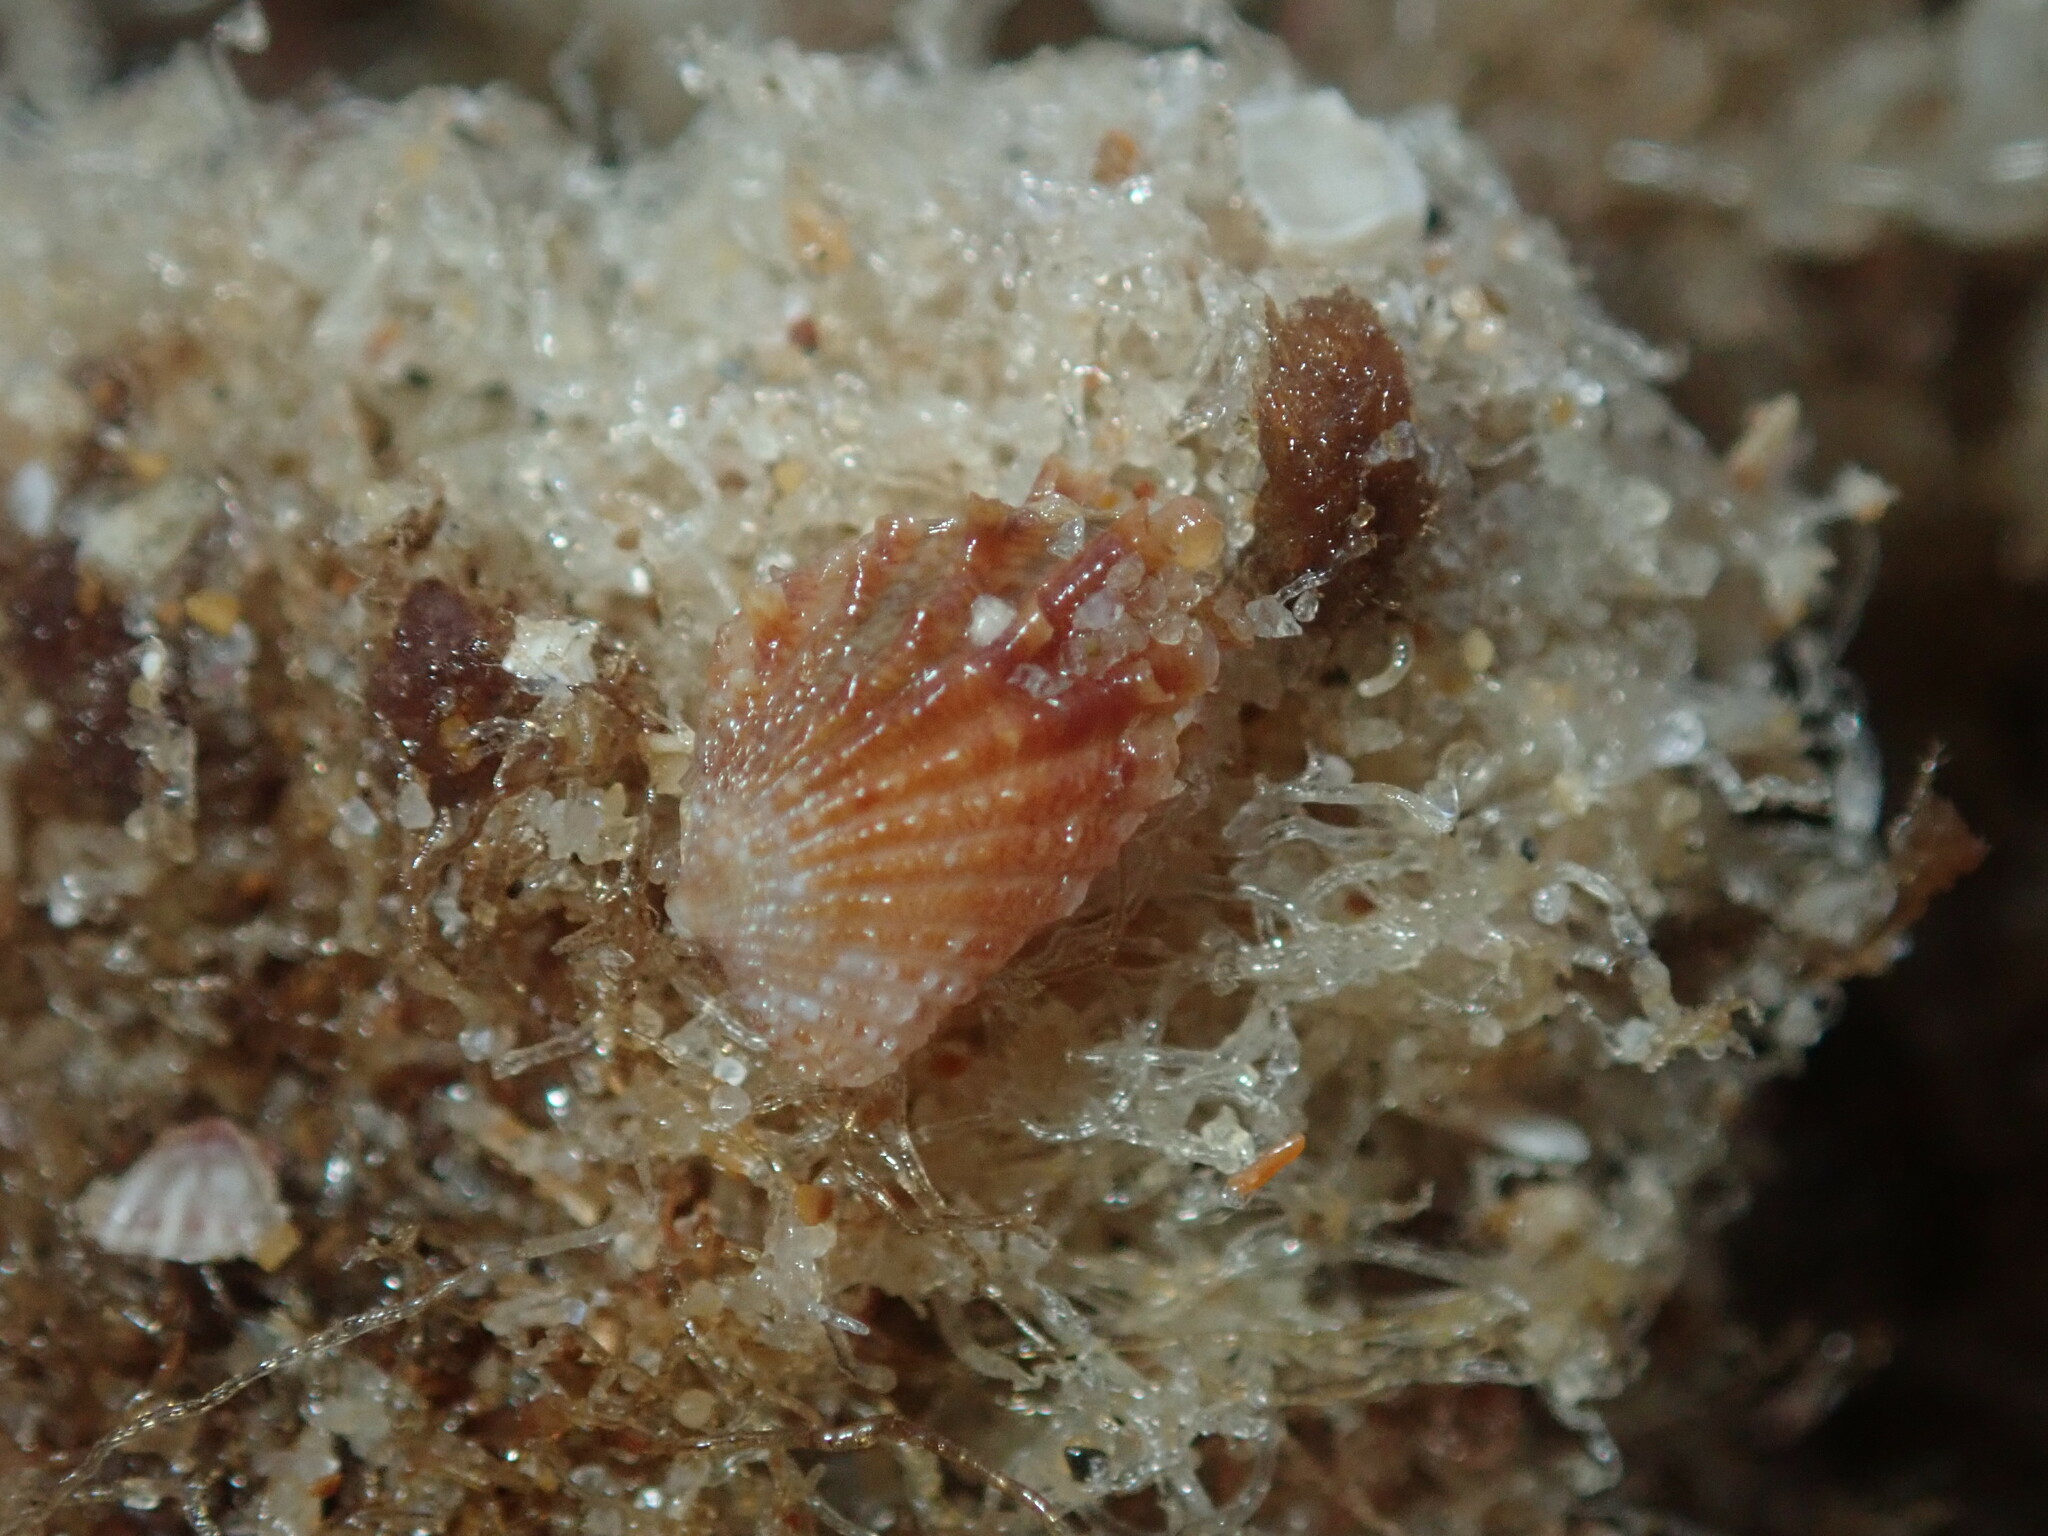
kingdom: Animalia
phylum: Mollusca
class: Bivalvia
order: Carditida
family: Carditidae
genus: Cardita
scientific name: Cardita aviculina
